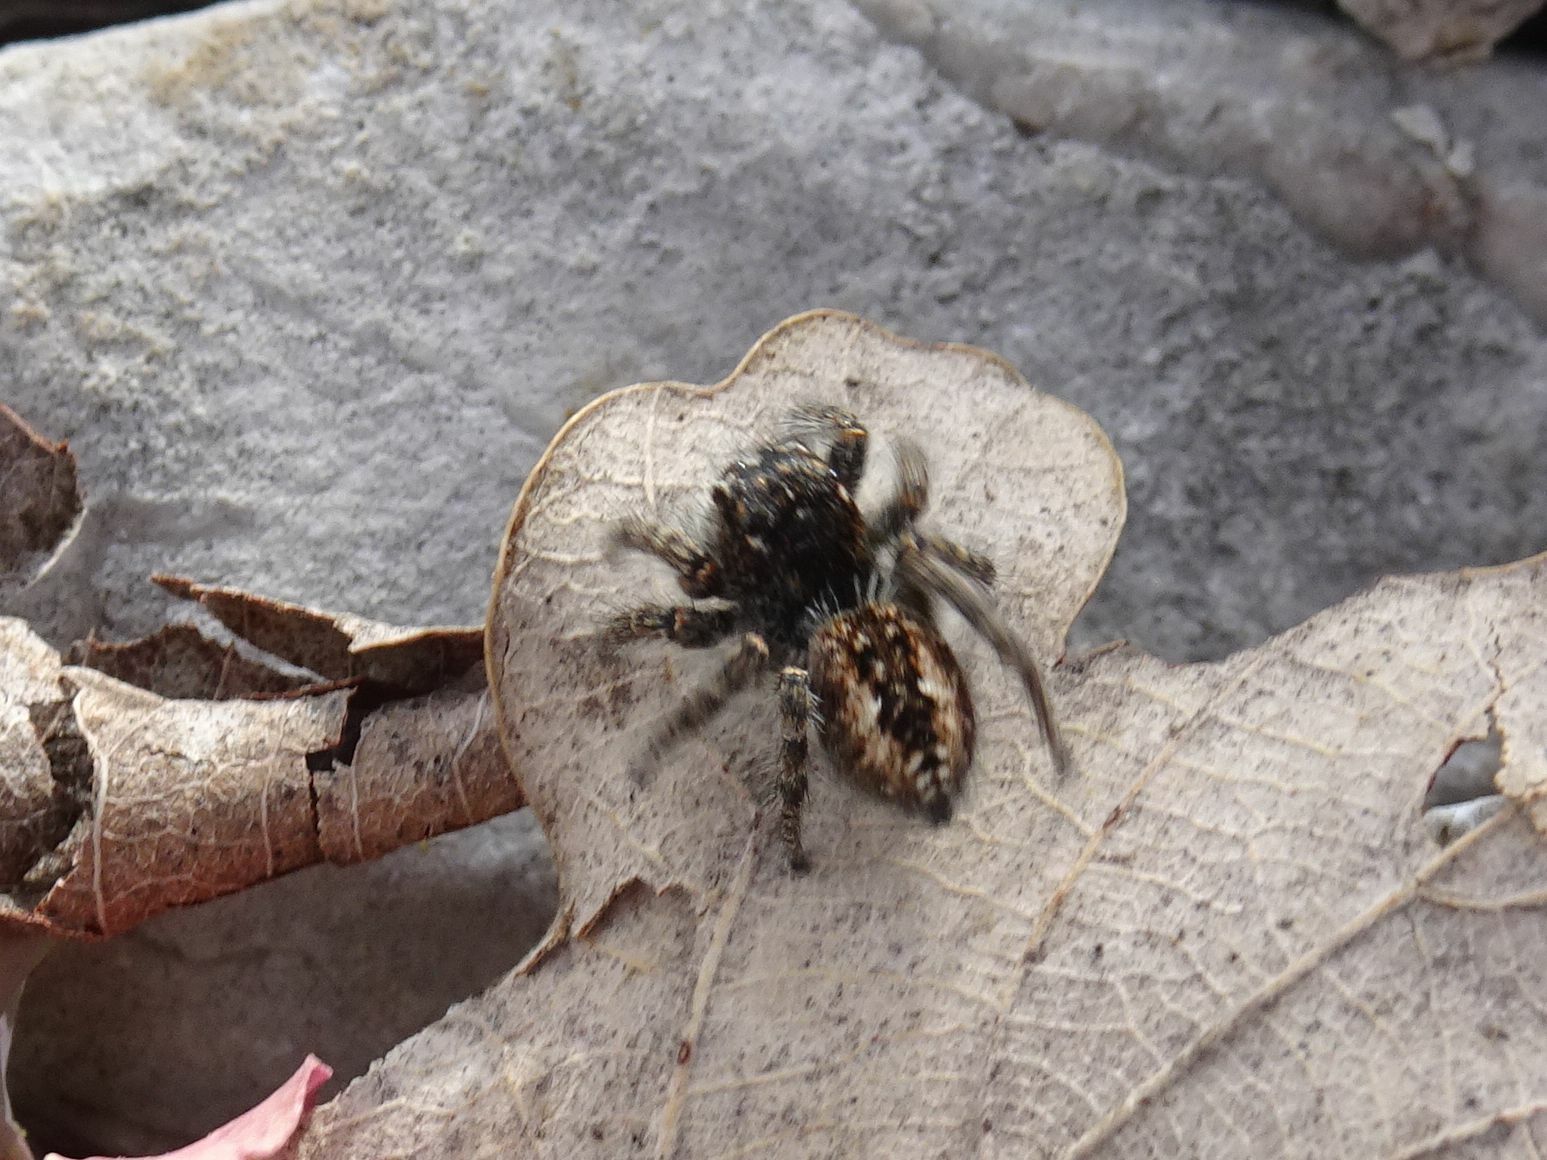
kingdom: Animalia
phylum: Arthropoda
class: Arachnida
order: Araneae
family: Salticidae
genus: Philaeus
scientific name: Philaeus chrysops
